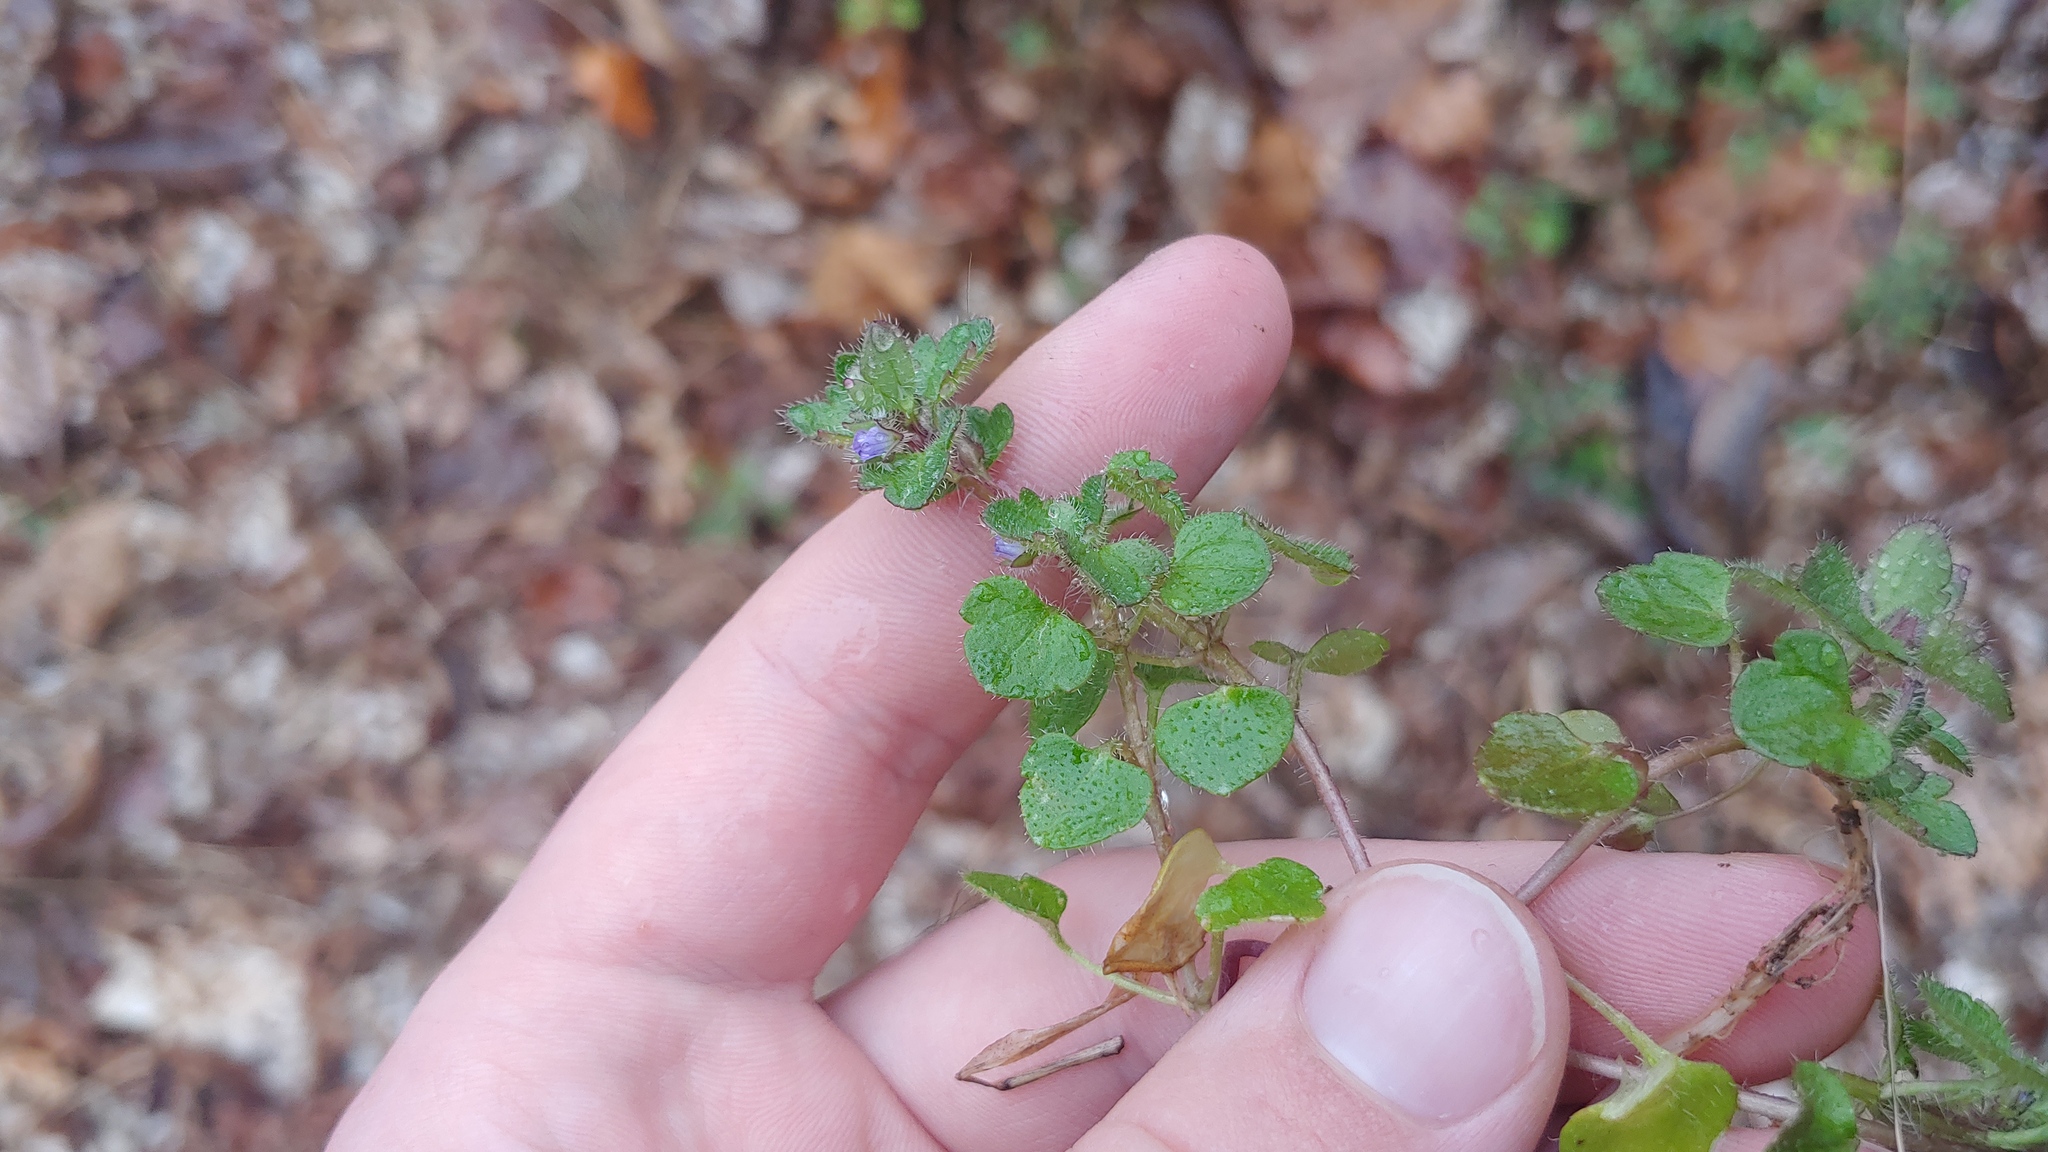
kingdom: Plantae
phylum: Tracheophyta
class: Magnoliopsida
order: Lamiales
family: Plantaginaceae
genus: Veronica
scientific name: Veronica hederifolia
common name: Ivy-leaved speedwell
